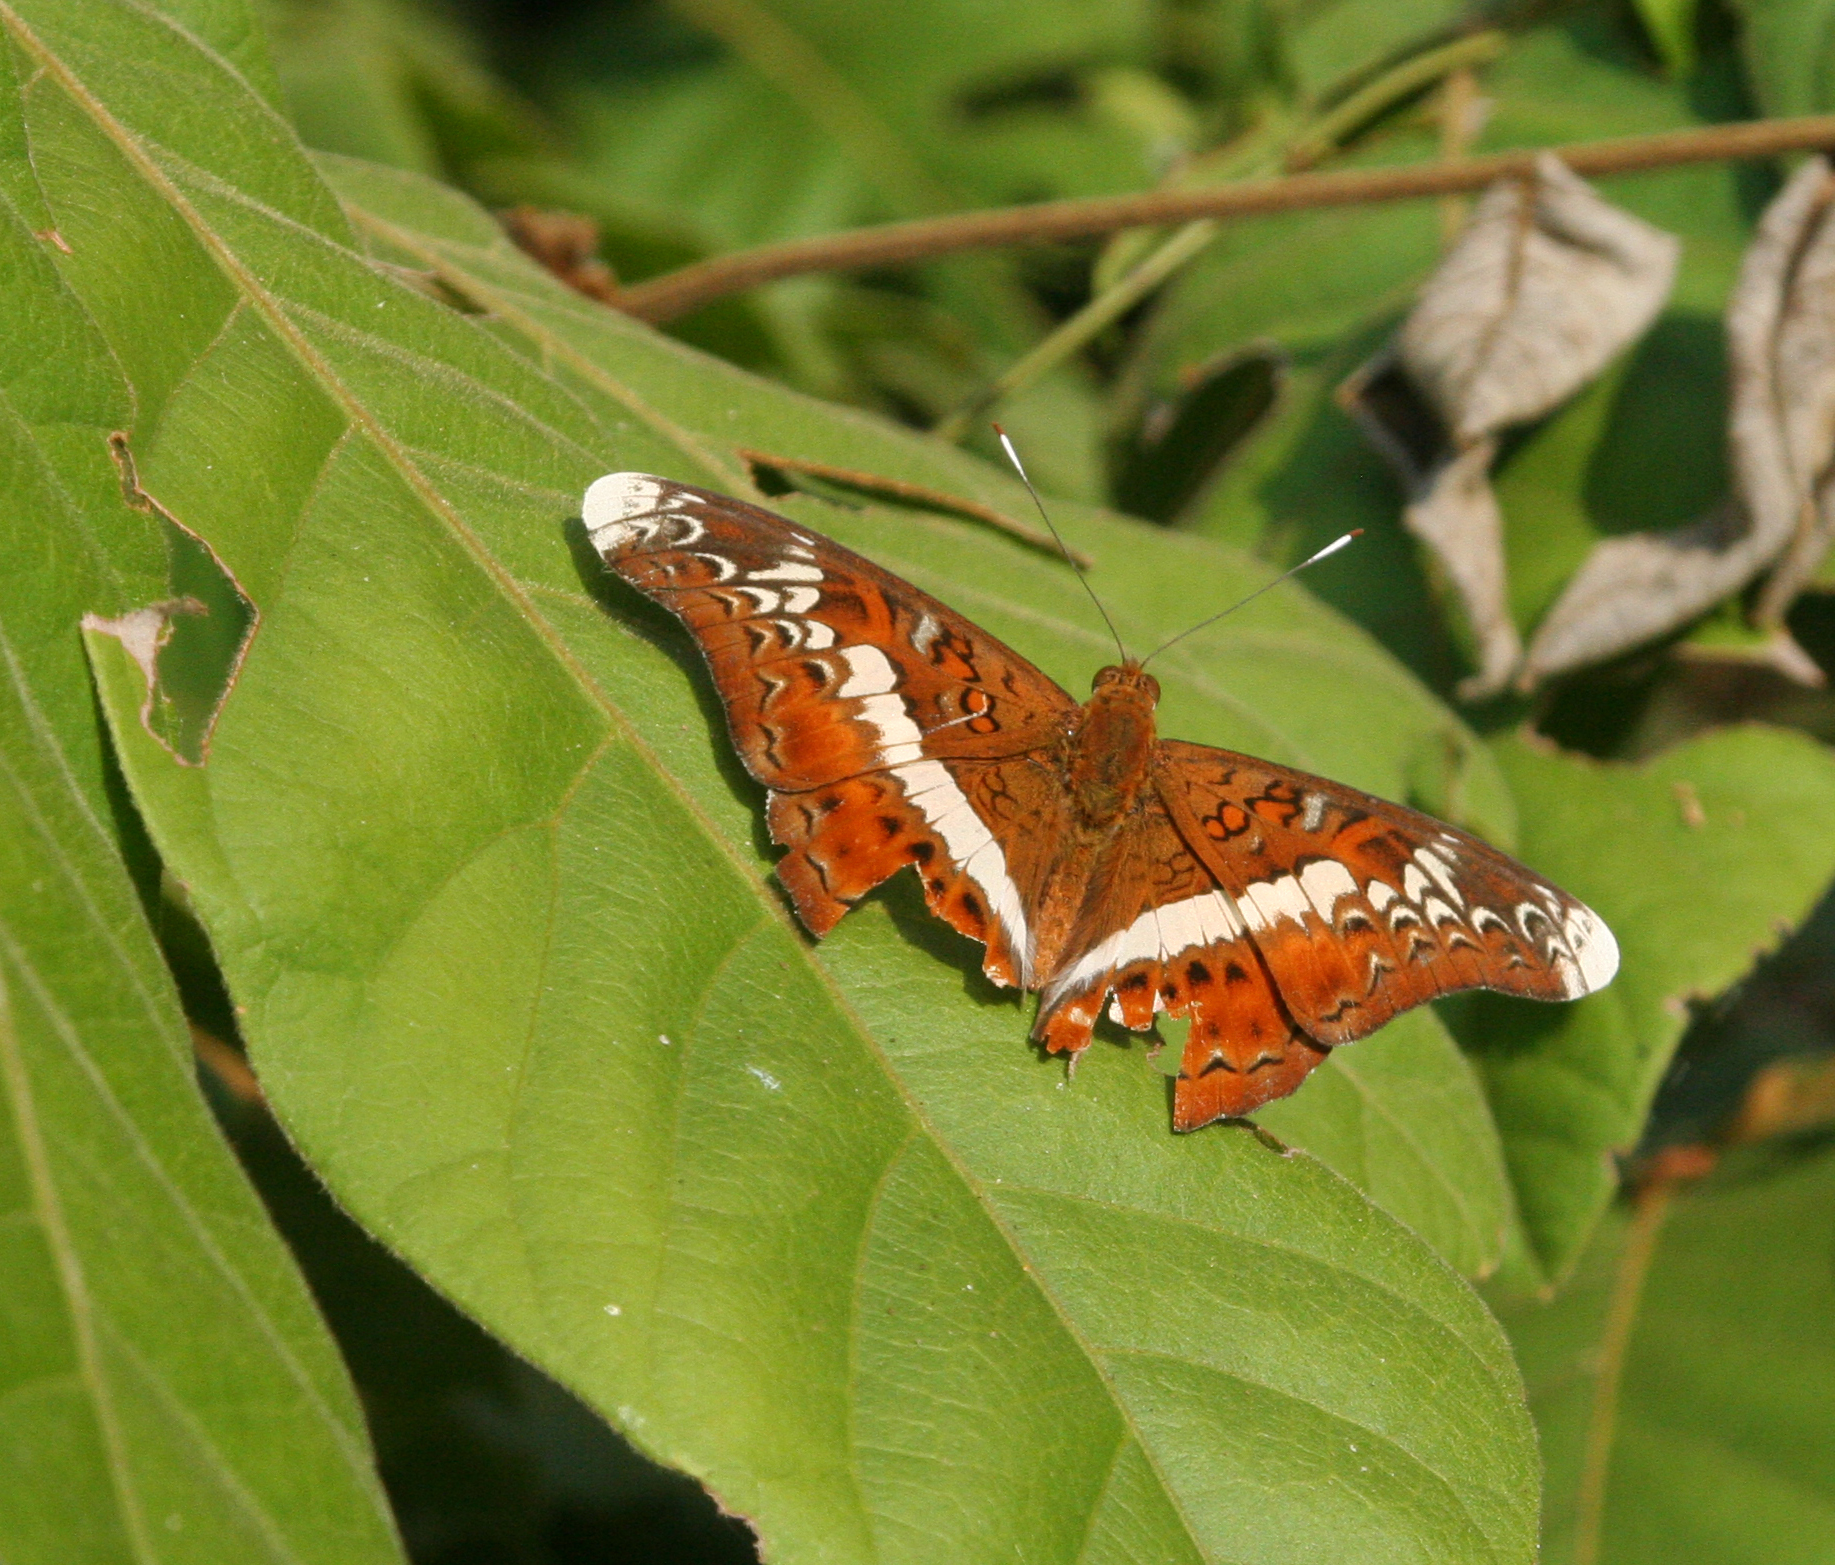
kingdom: Animalia
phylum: Arthropoda
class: Insecta
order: Lepidoptera
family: Nymphalidae
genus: Lebadea
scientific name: Lebadea martha
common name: Knight
